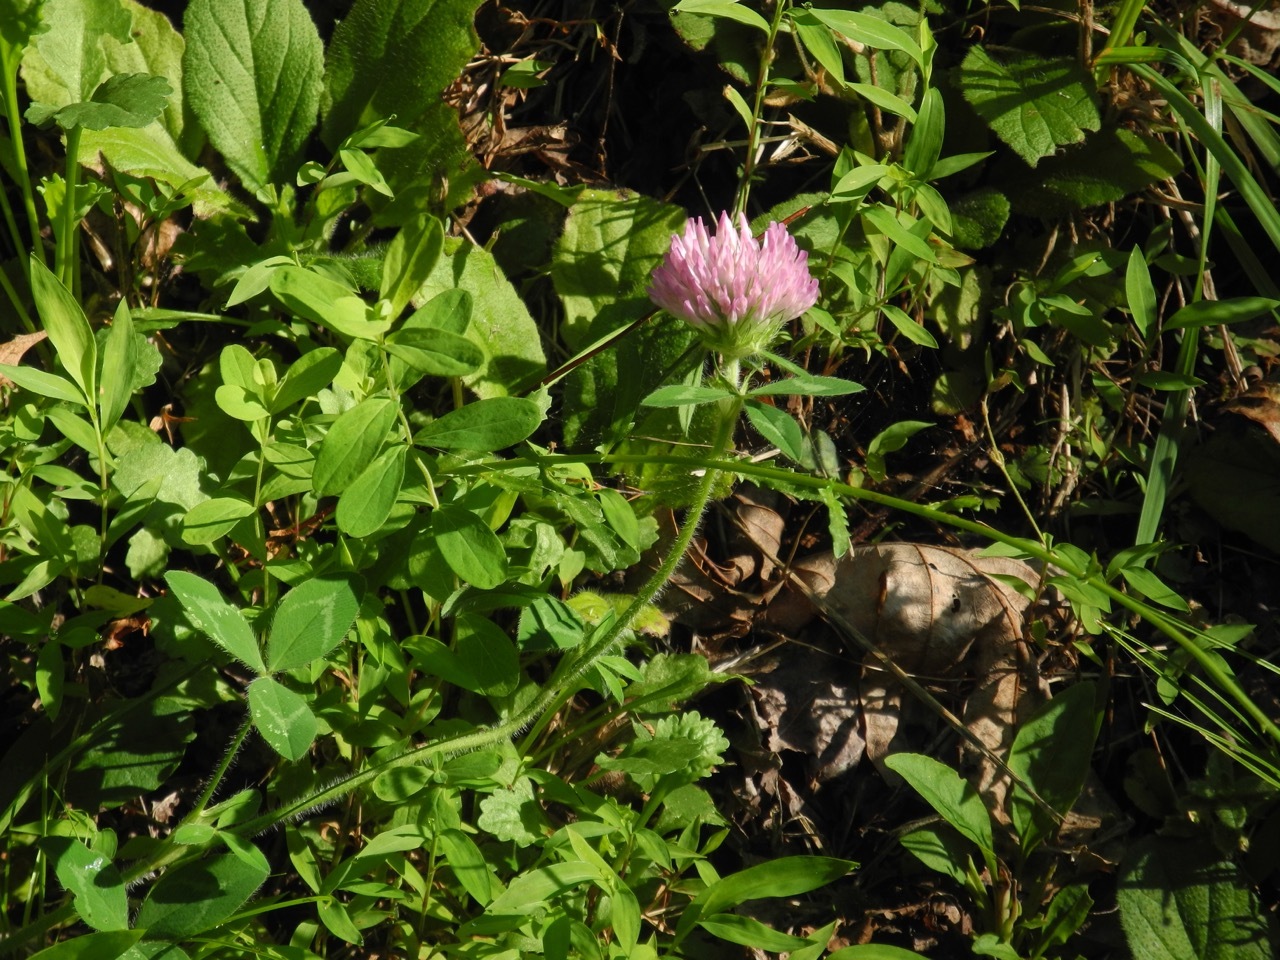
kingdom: Plantae
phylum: Tracheophyta
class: Magnoliopsida
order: Fabales
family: Fabaceae
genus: Trifolium
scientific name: Trifolium pratense
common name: Red clover
